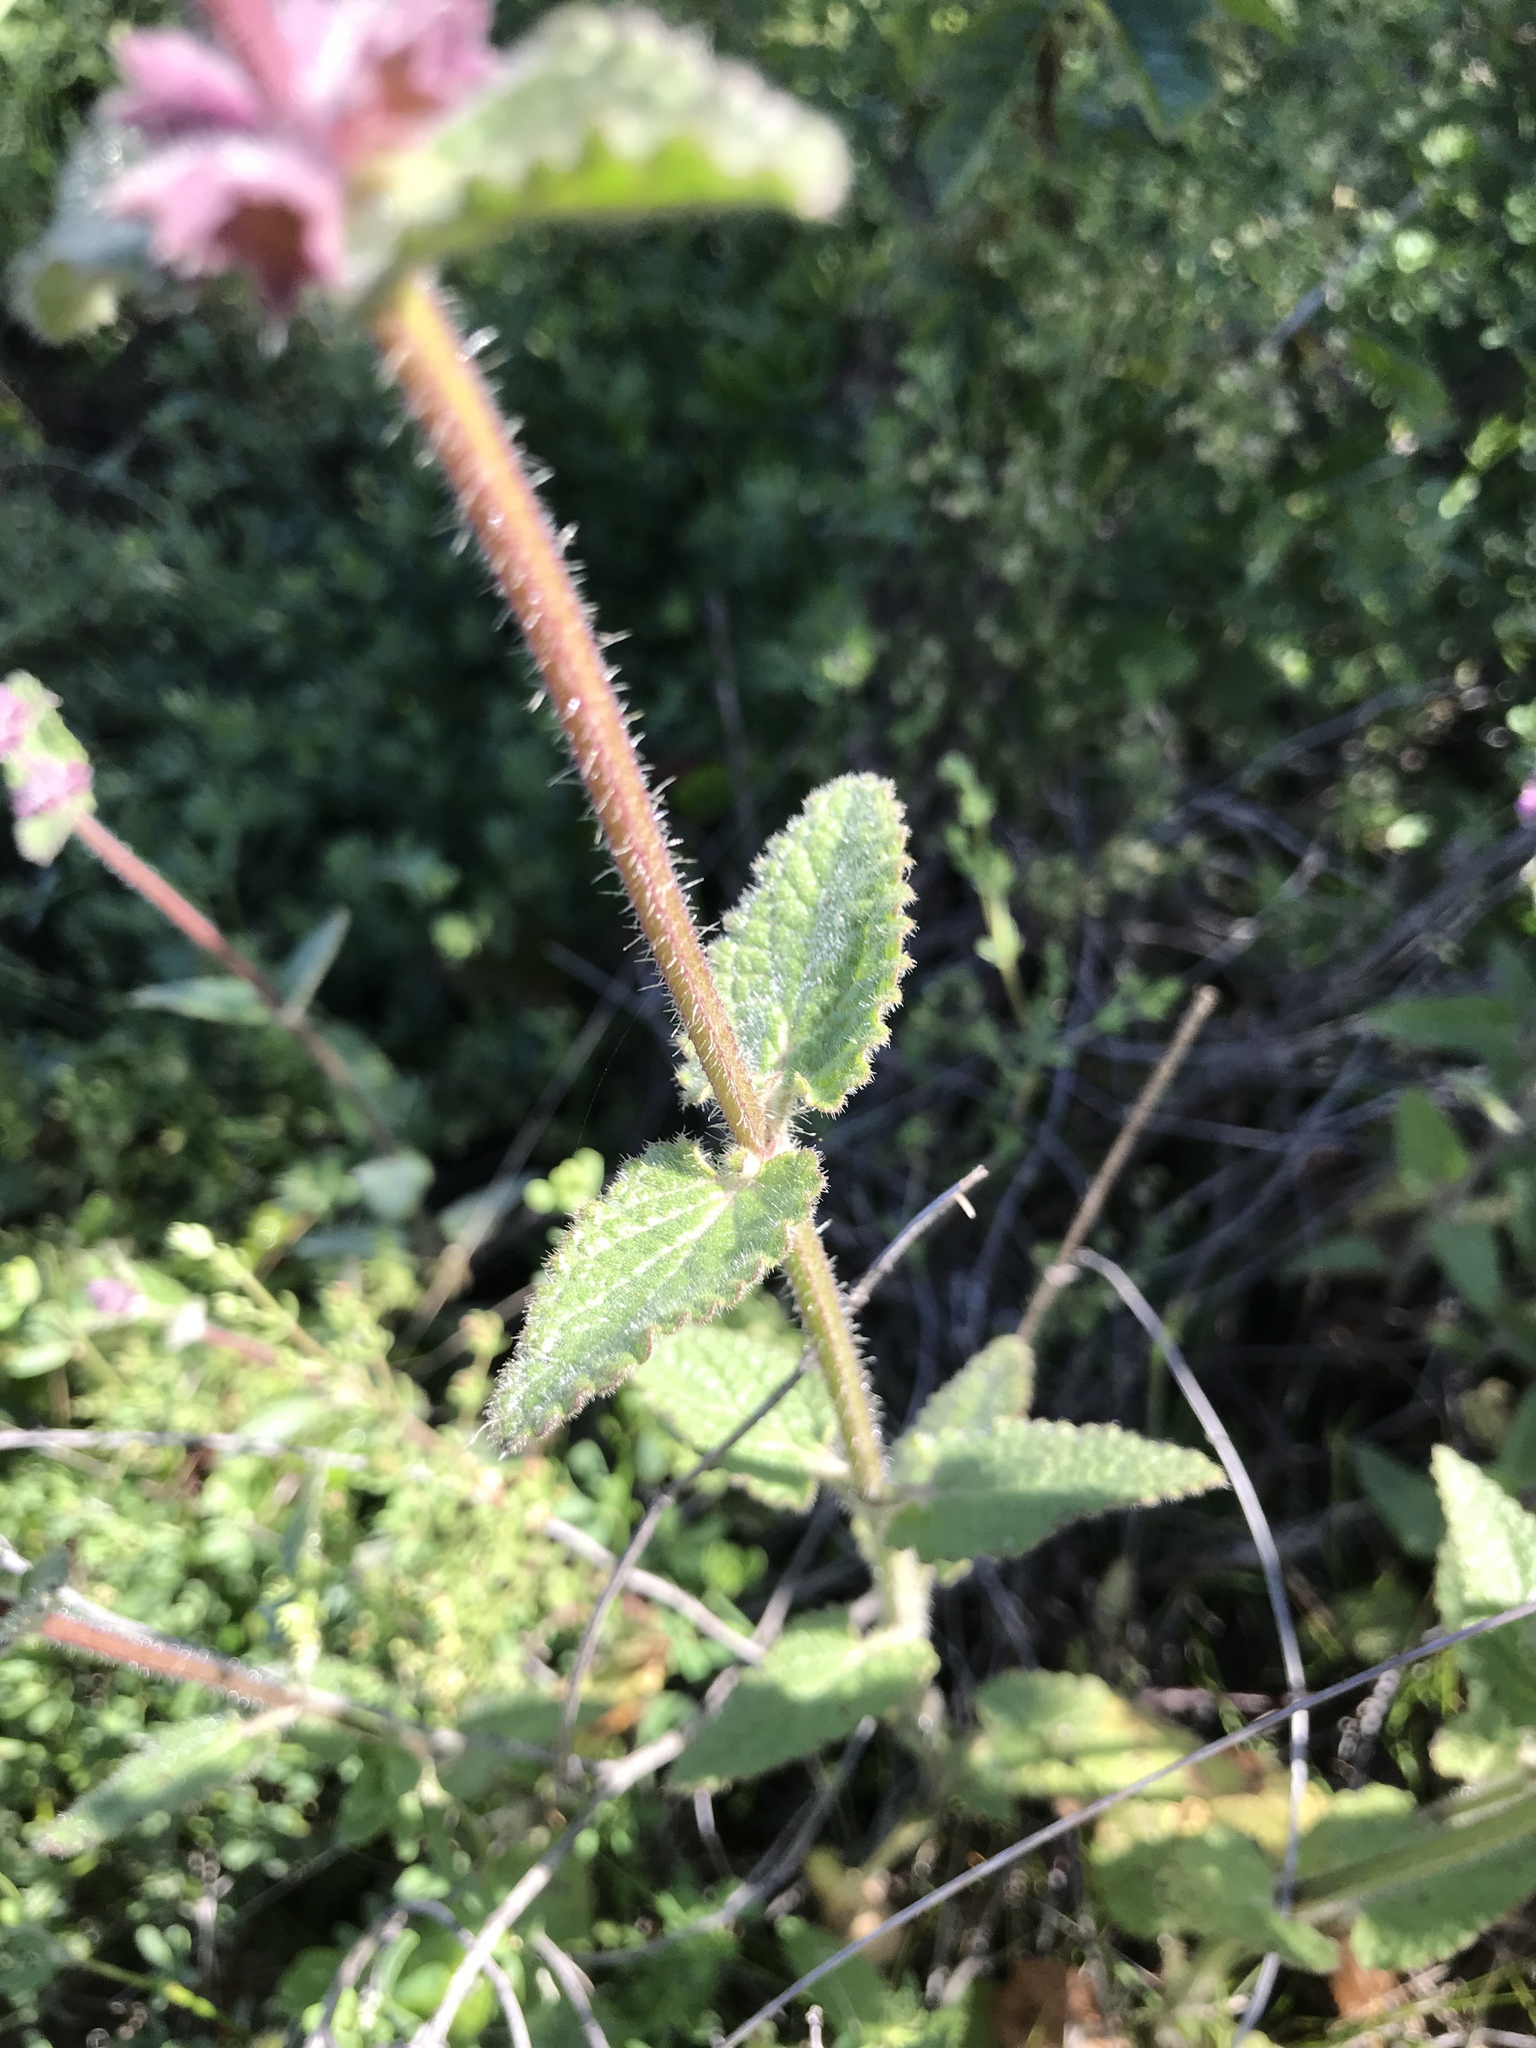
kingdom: Plantae
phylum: Tracheophyta
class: Magnoliopsida
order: Lamiales
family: Lamiaceae
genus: Stachys
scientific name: Stachys bullata
